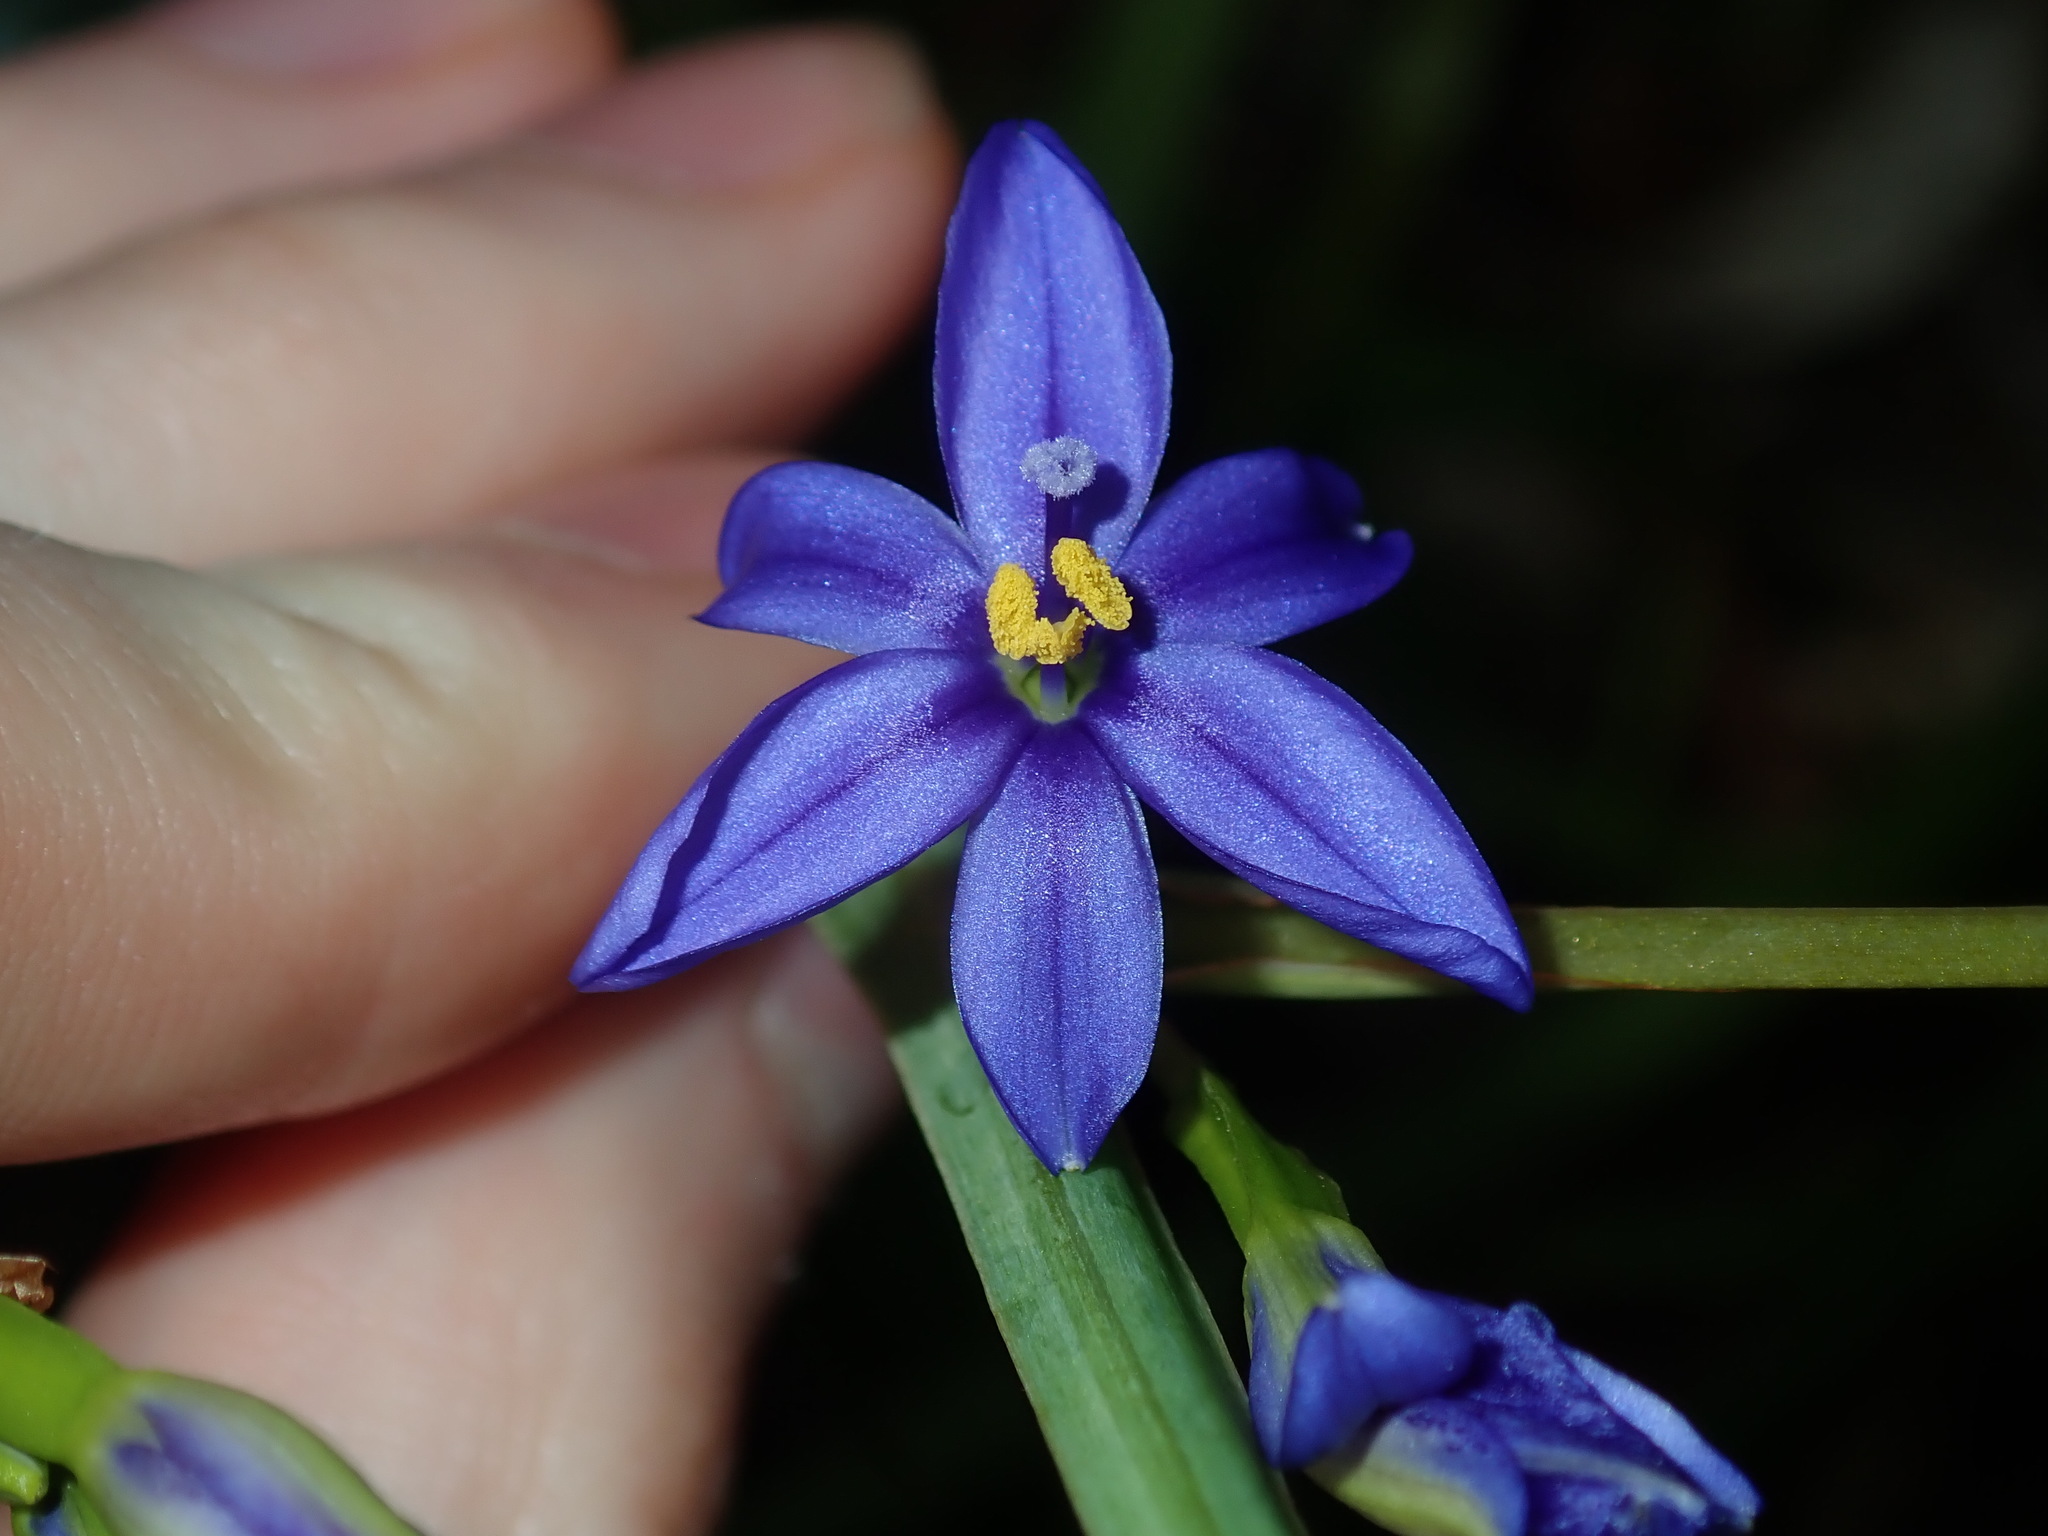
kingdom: Plantae
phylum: Tracheophyta
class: Liliopsida
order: Asparagales
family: Iridaceae
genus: Aristea
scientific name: Aristea ecklonii
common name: Blue corn-lily
